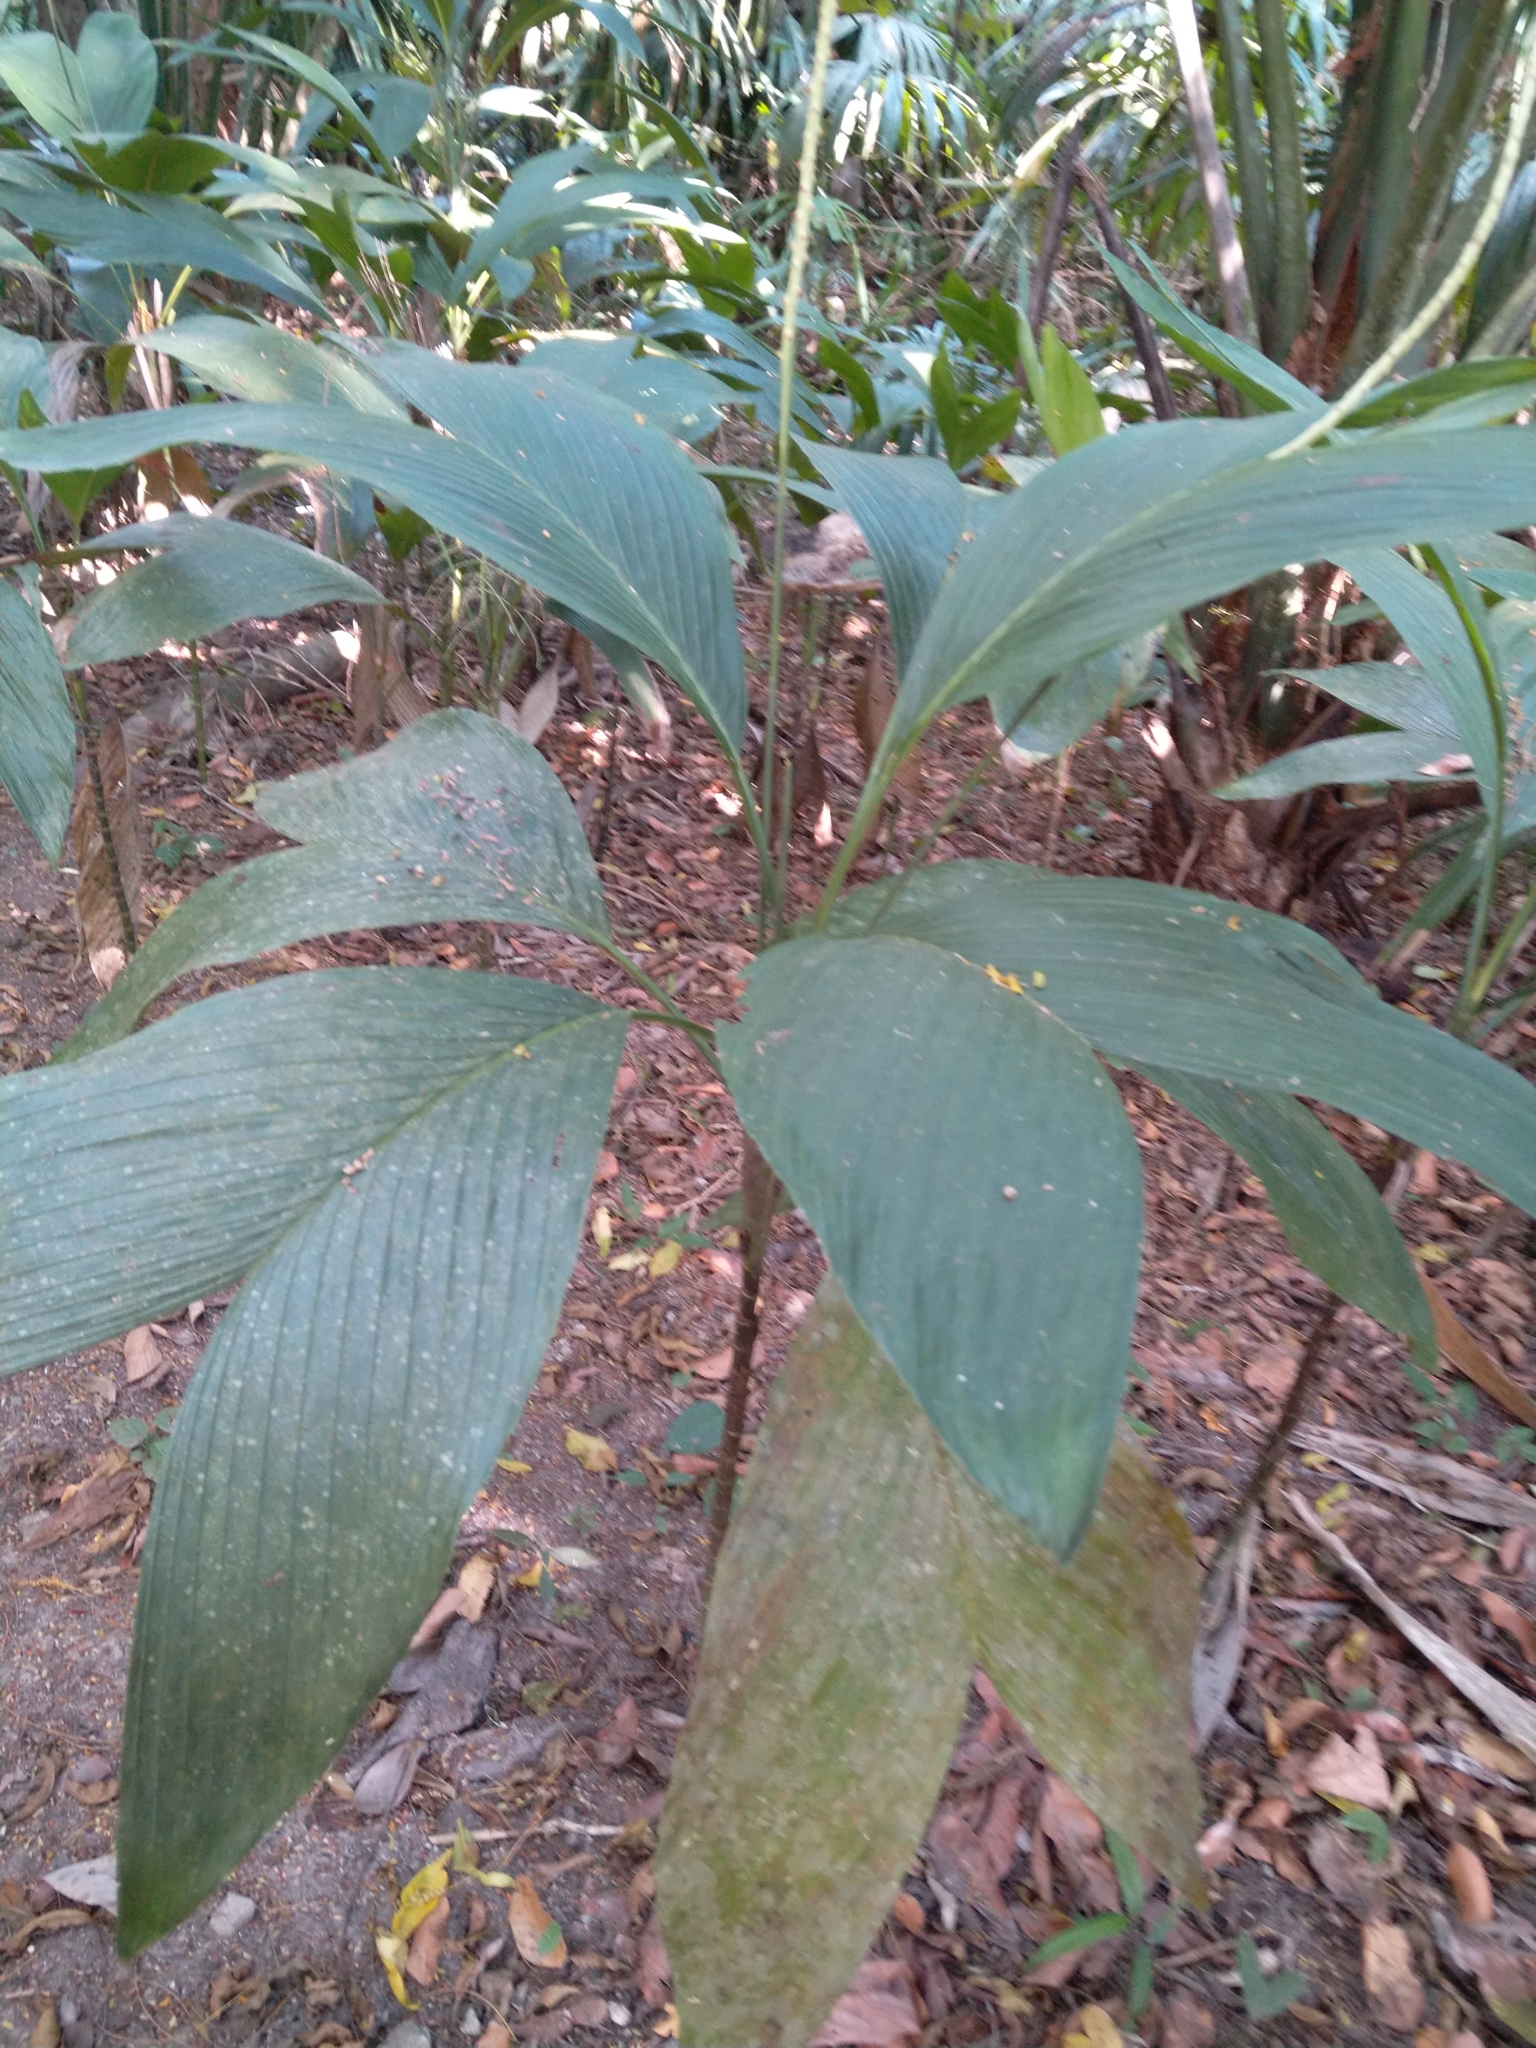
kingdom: Plantae
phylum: Tracheophyta
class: Liliopsida
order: Arecales
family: Arecaceae
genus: Chamaedorea
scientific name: Chamaedorea ernesti-augusti
